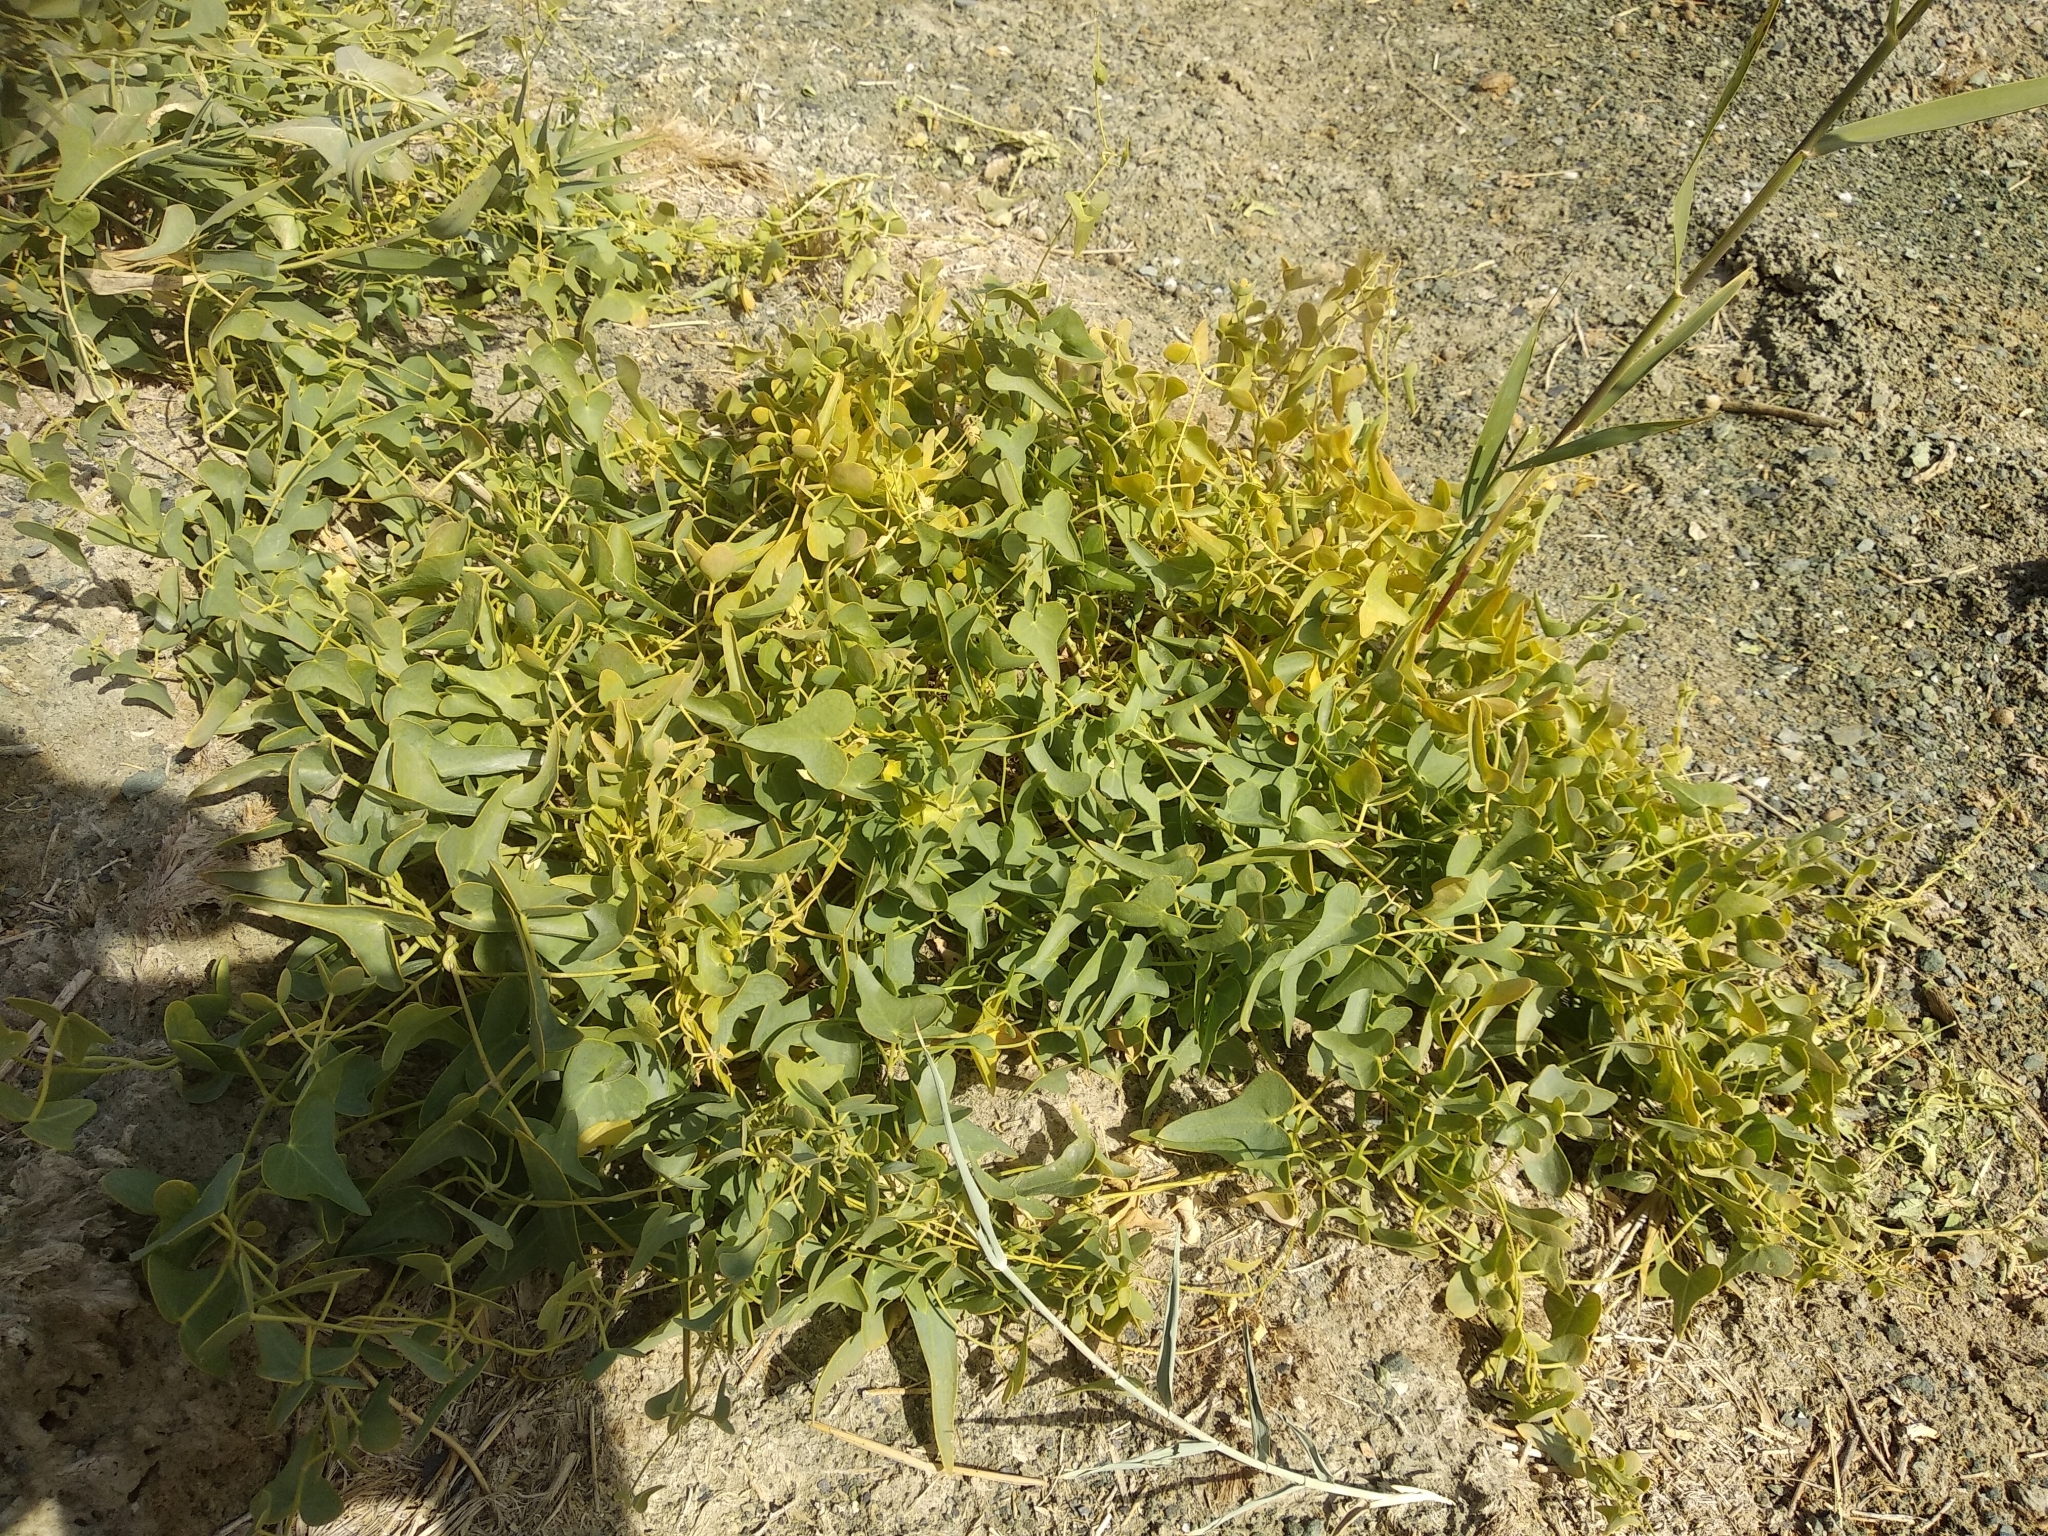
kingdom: Plantae
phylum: Tracheophyta
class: Magnoliopsida
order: Gentianales
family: Apocynaceae
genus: Cynanchum
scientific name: Cynanchum acutum
